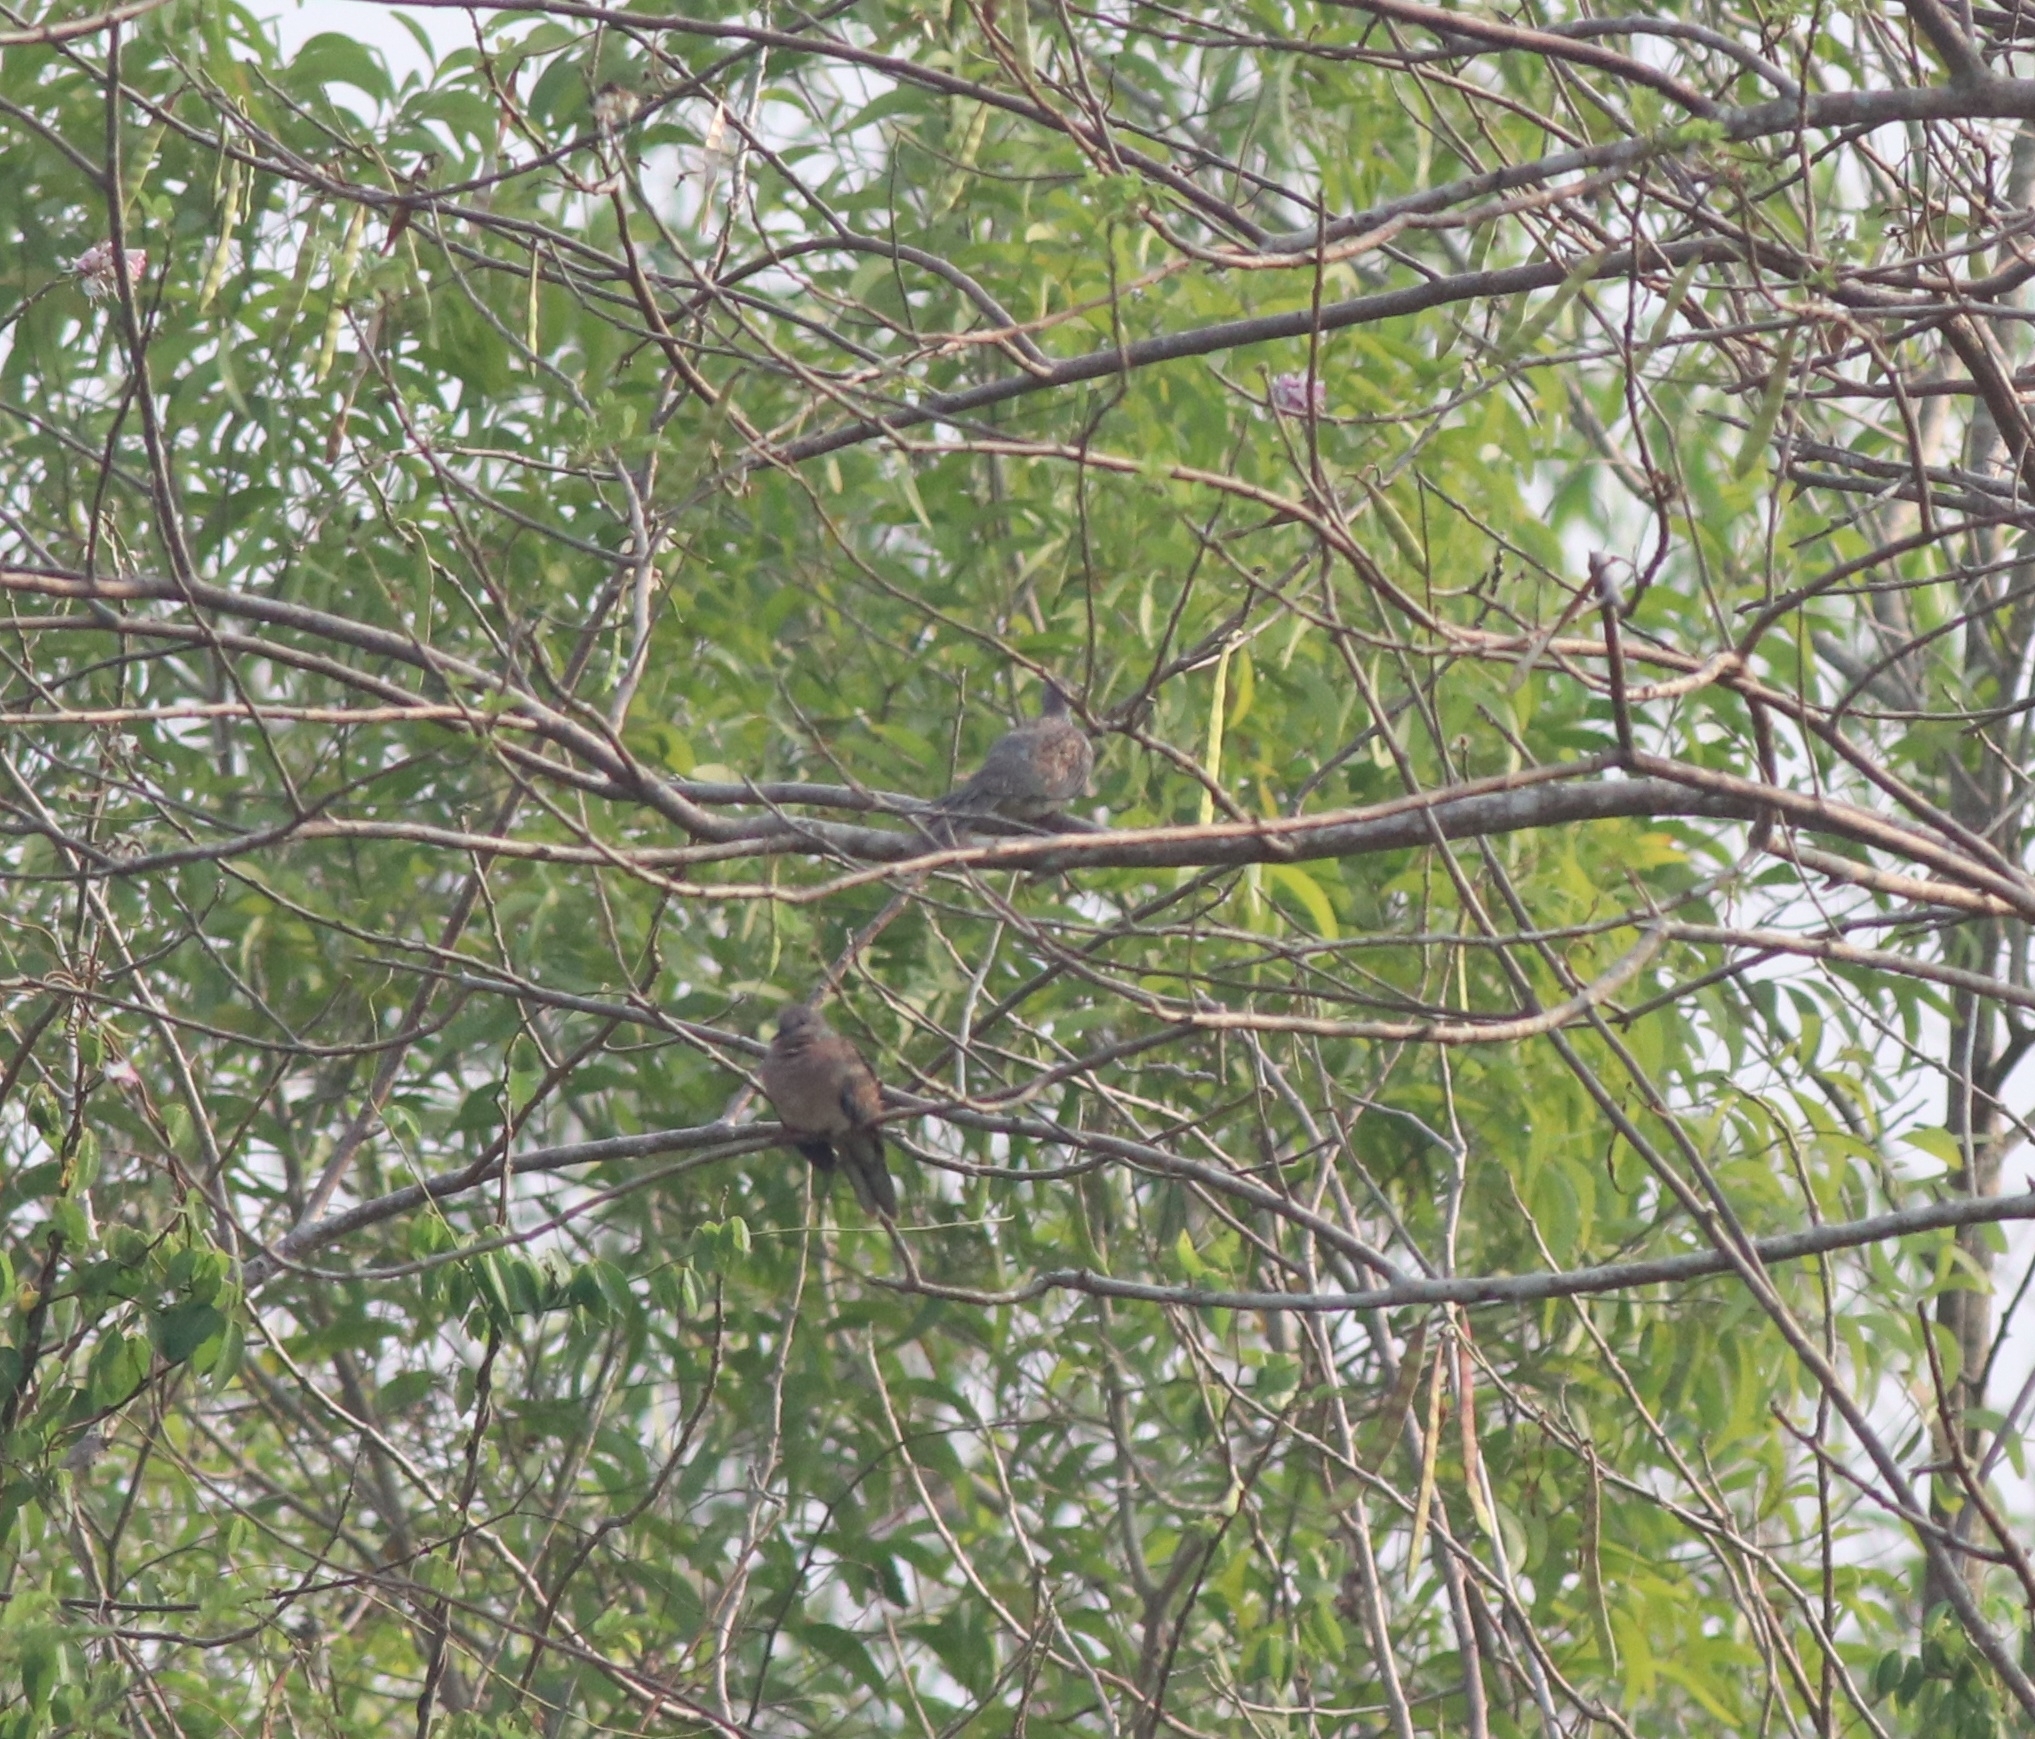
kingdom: Animalia
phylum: Chordata
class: Aves
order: Columbiformes
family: Columbidae
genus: Spilopelia
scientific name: Spilopelia chinensis
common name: Spotted dove
